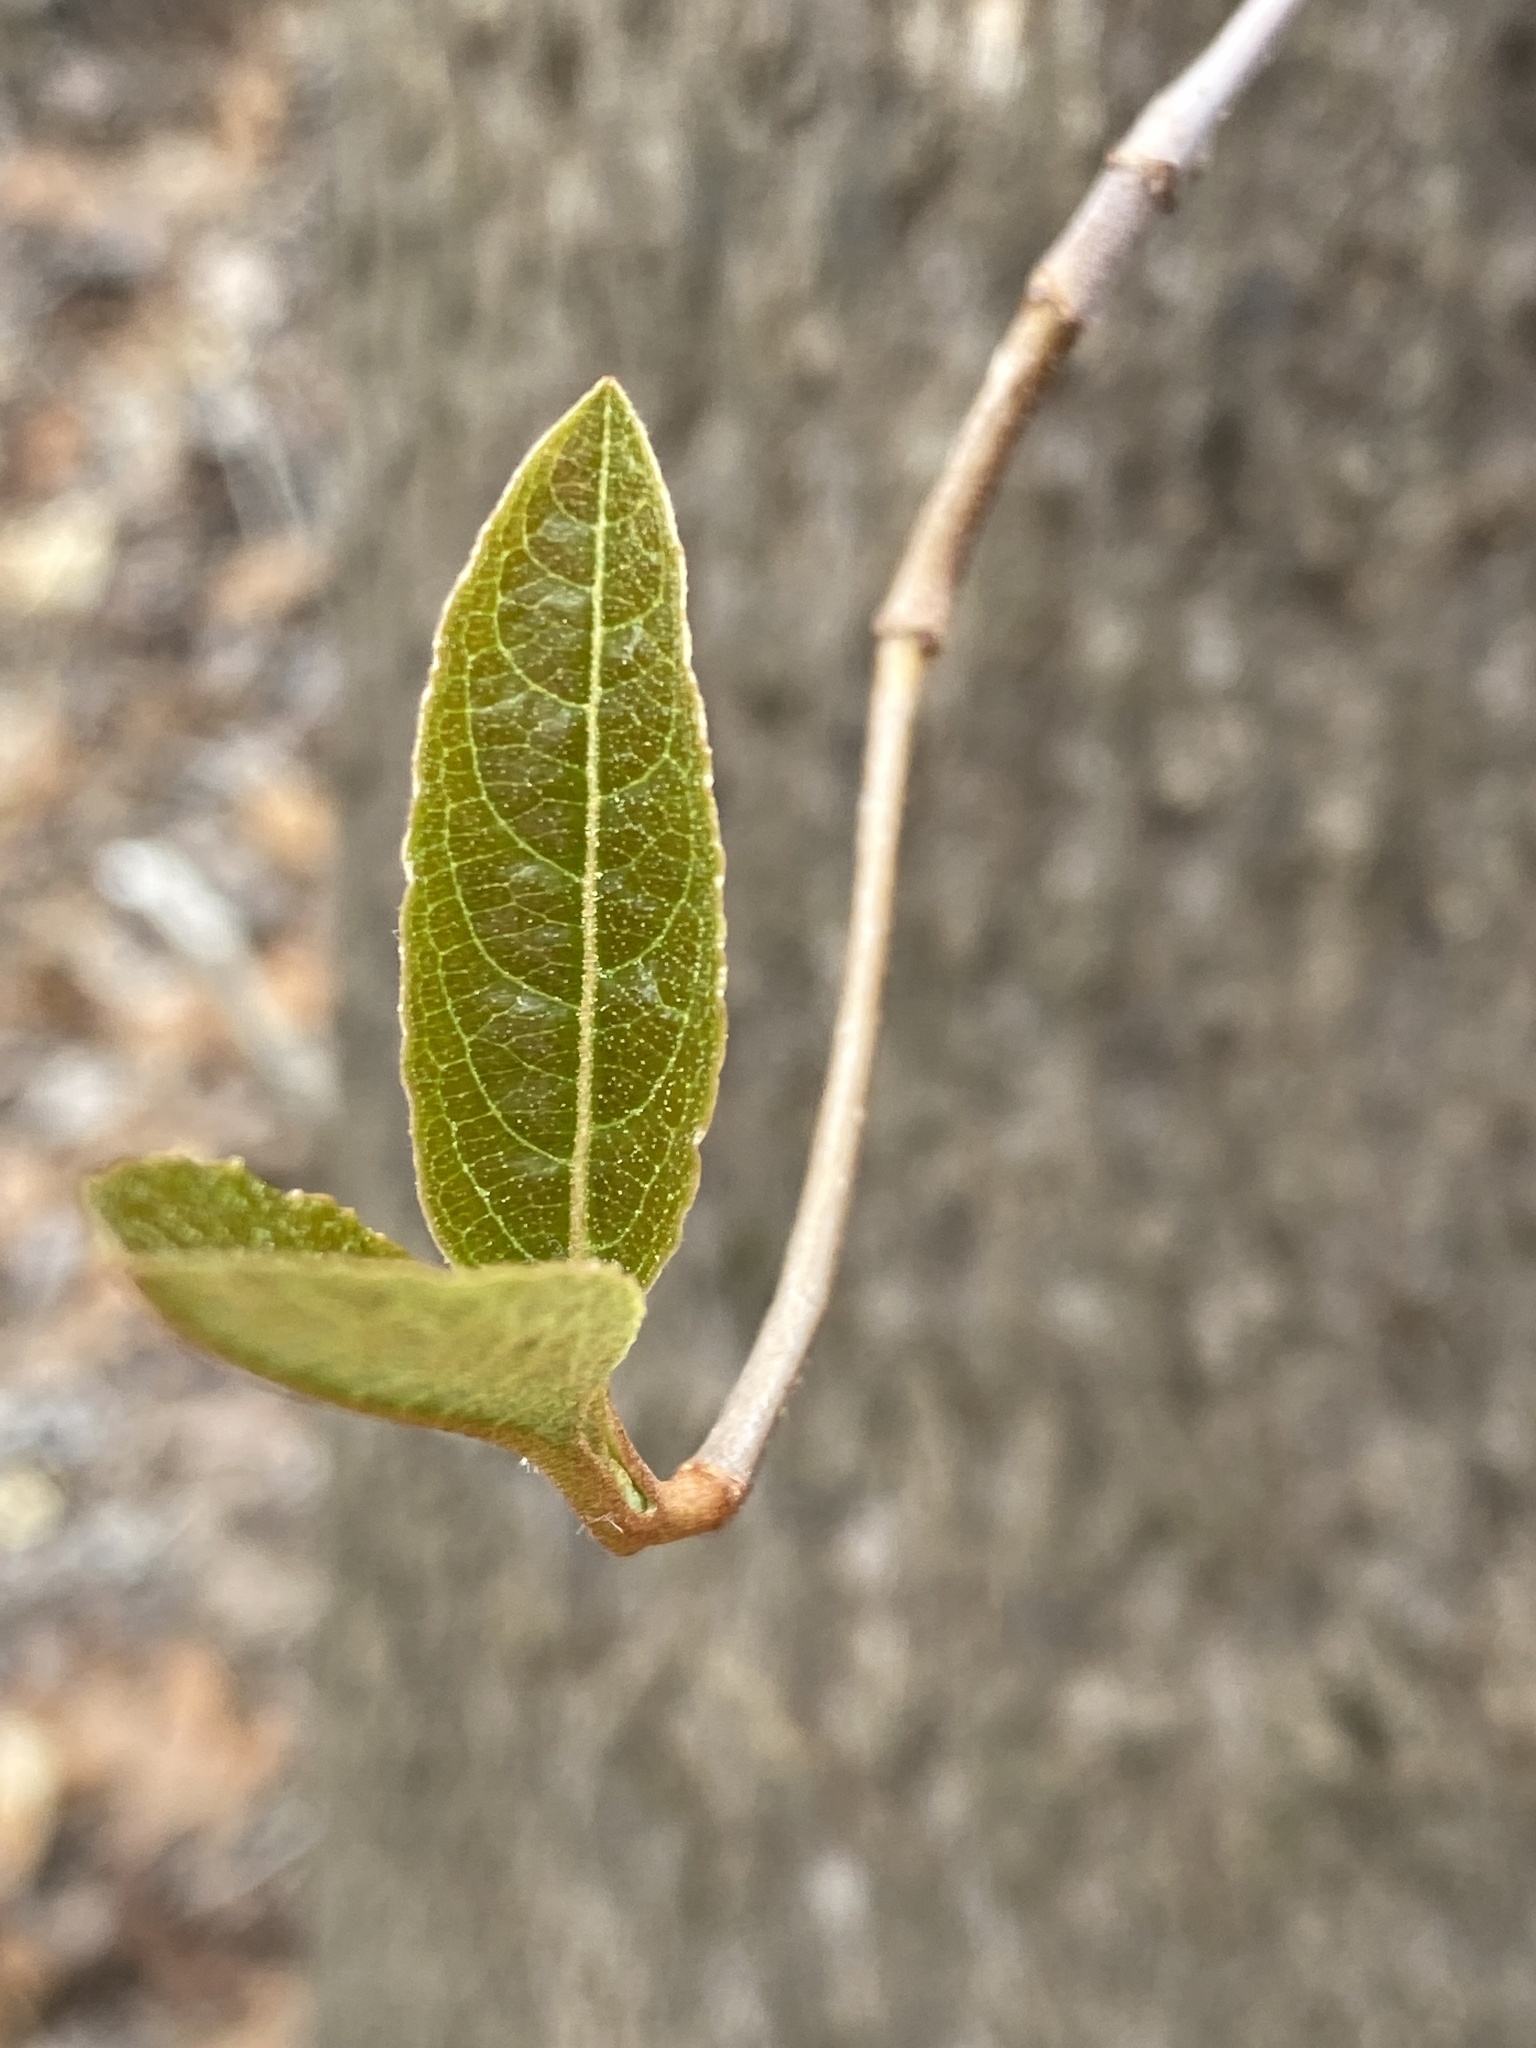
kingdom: Plantae
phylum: Tracheophyta
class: Magnoliopsida
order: Dipsacales
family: Viburnaceae
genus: Viburnum
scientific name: Viburnum nudum
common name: Possum haw
